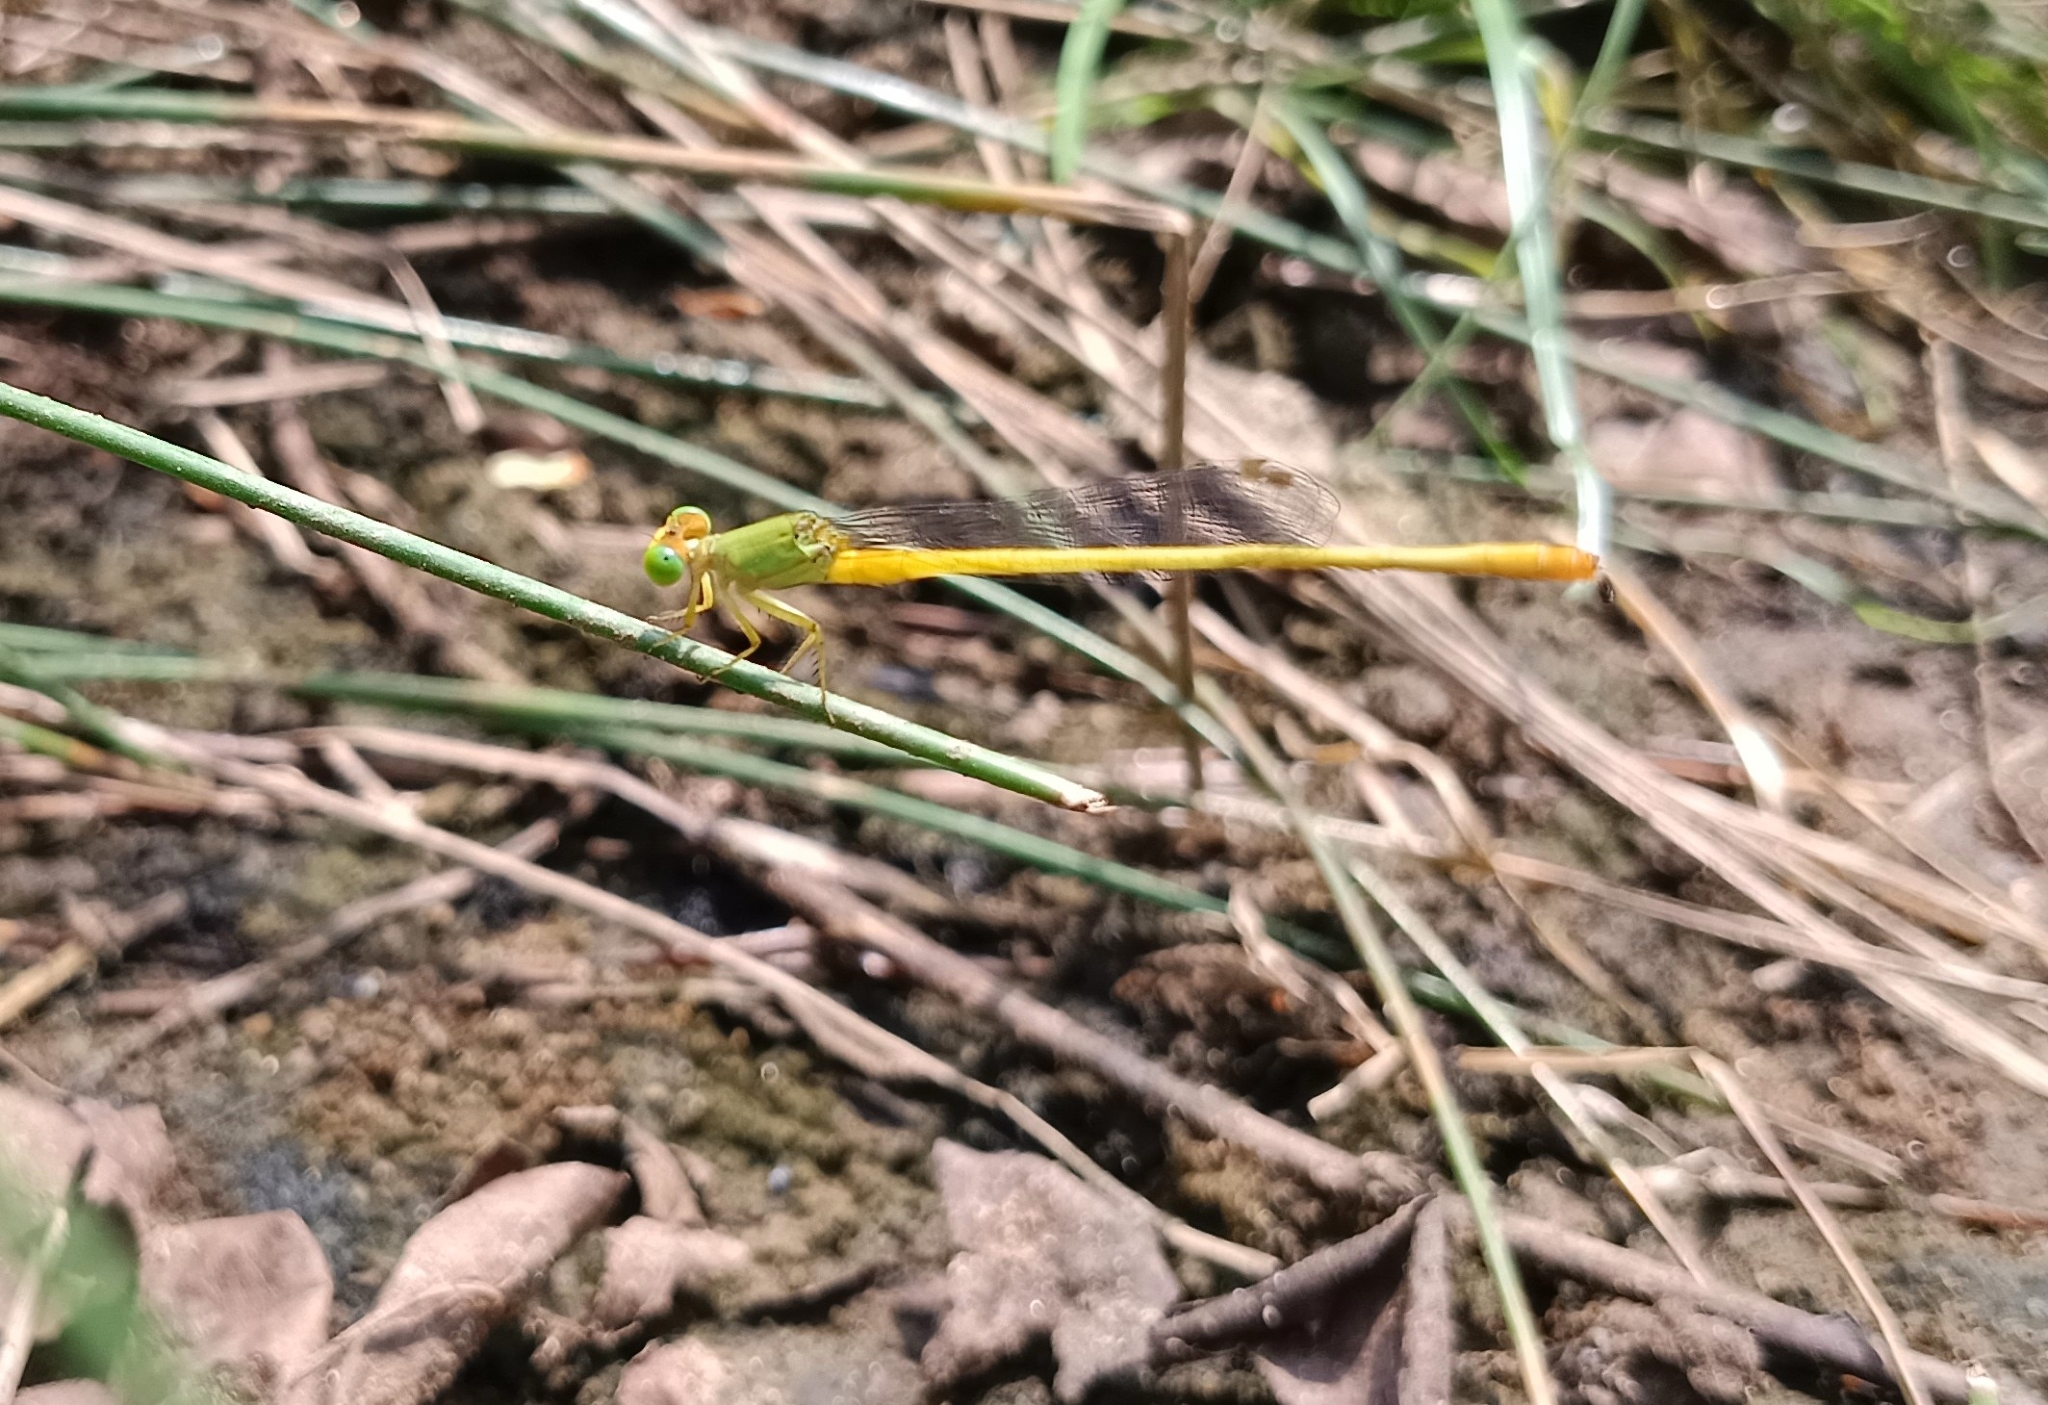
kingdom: Animalia
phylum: Arthropoda
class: Insecta
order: Odonata
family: Coenagrionidae
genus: Ceriagrion
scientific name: Ceriagrion coromandelianum
